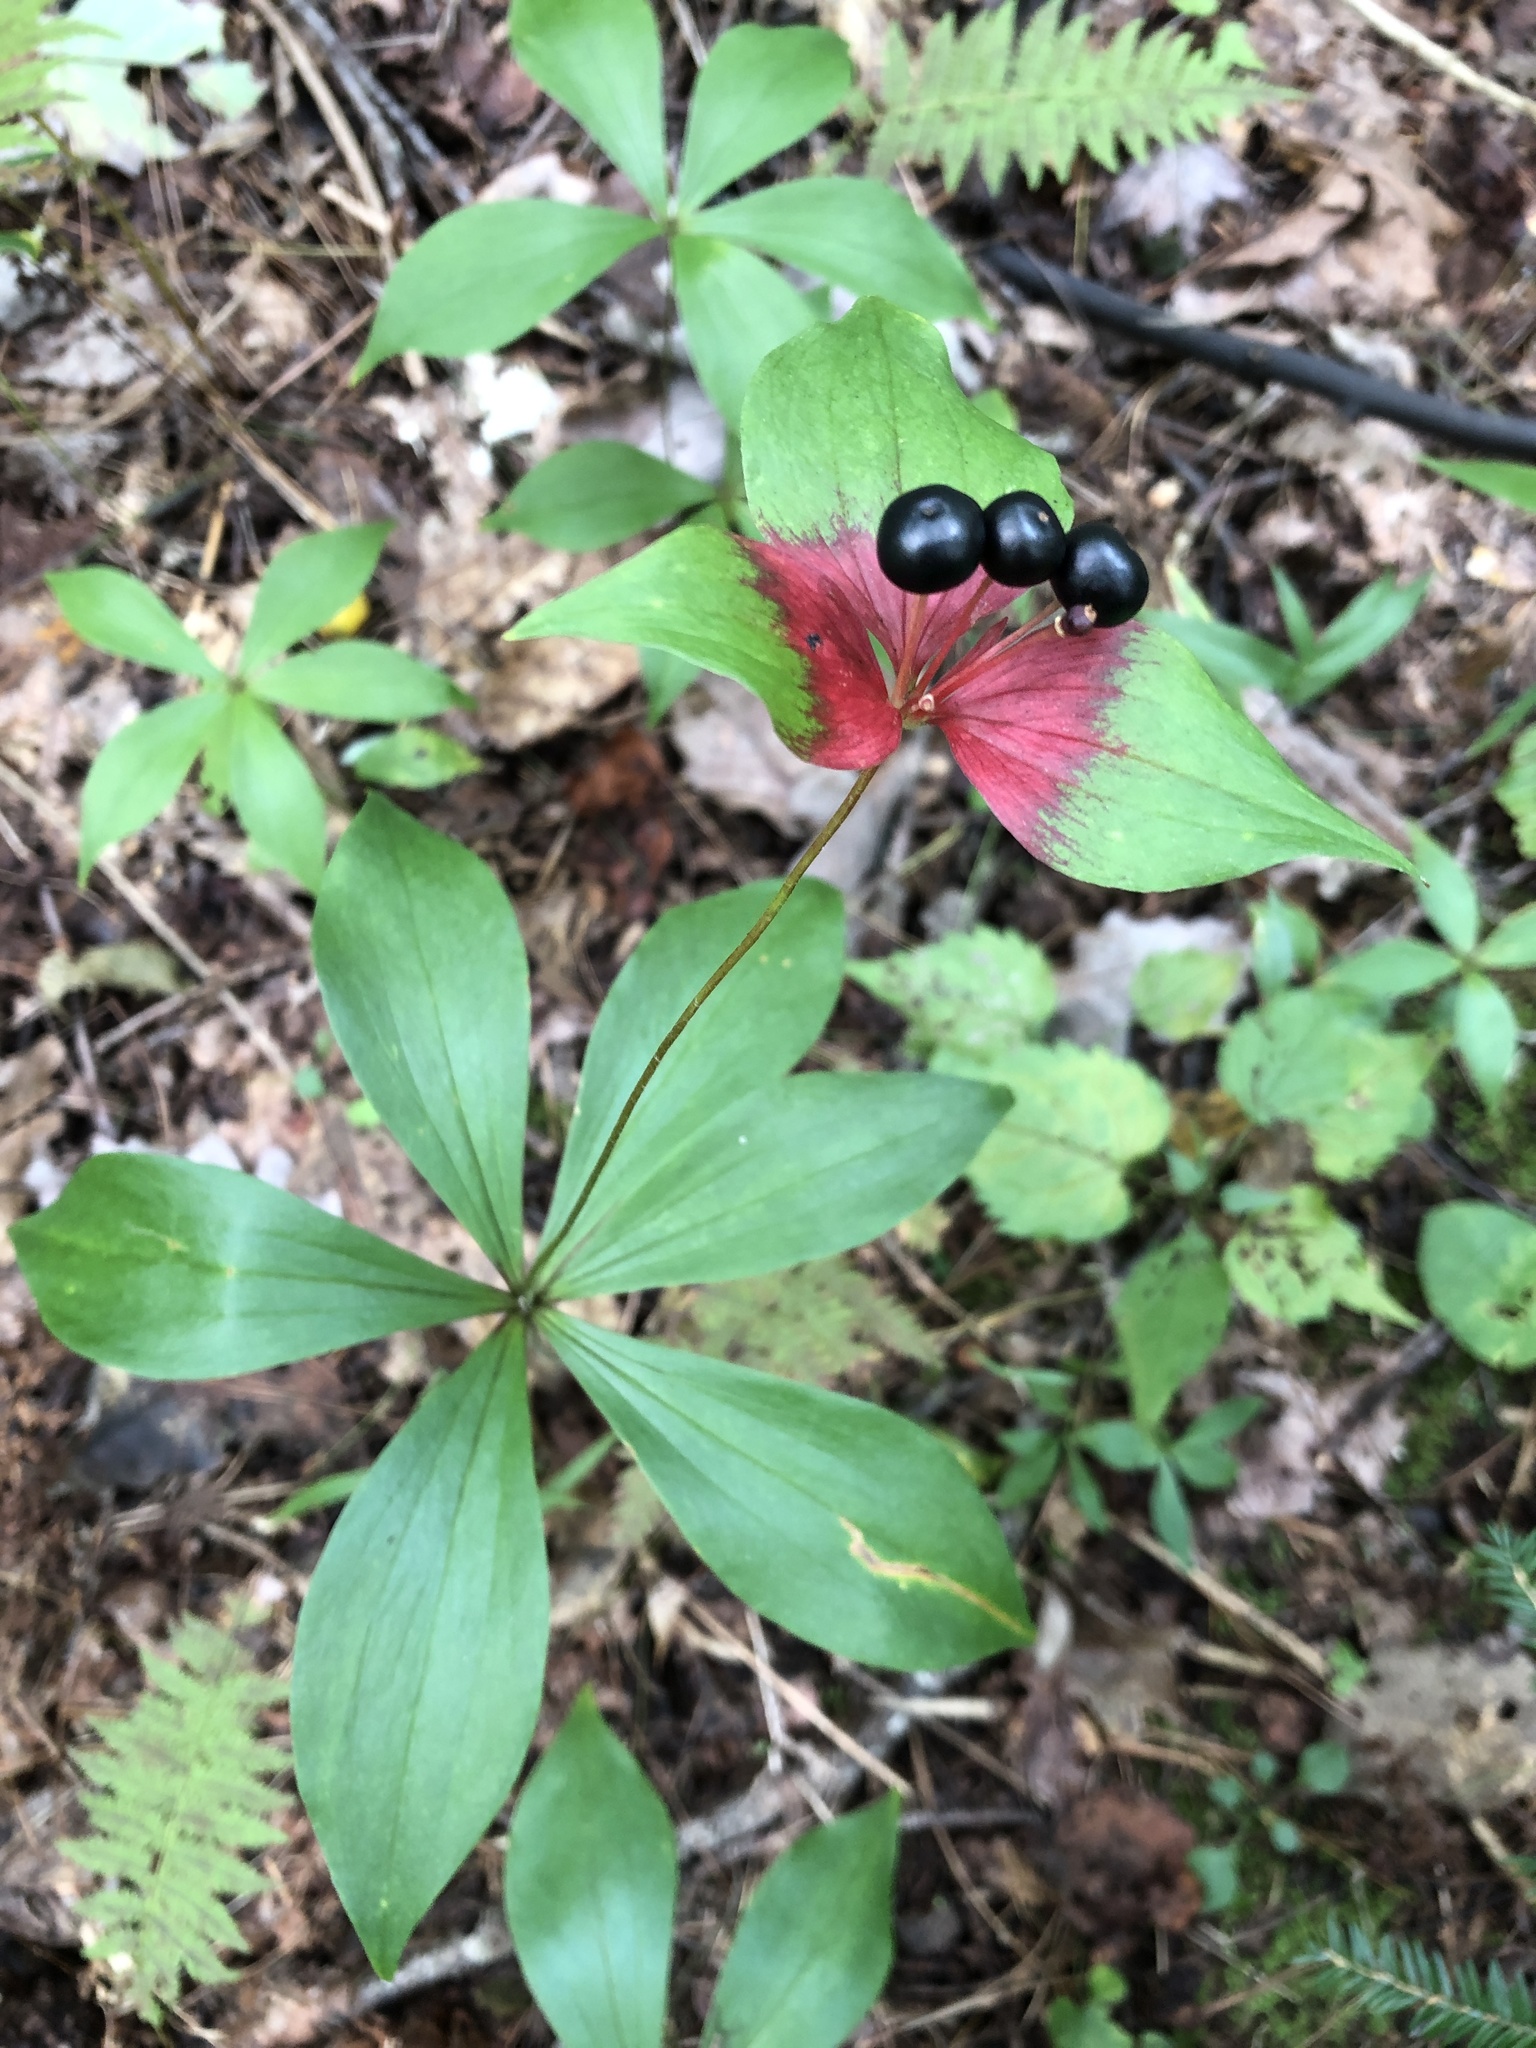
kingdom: Plantae
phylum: Tracheophyta
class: Liliopsida
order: Liliales
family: Liliaceae
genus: Medeola
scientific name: Medeola virginiana
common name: Indian cucumber-root
